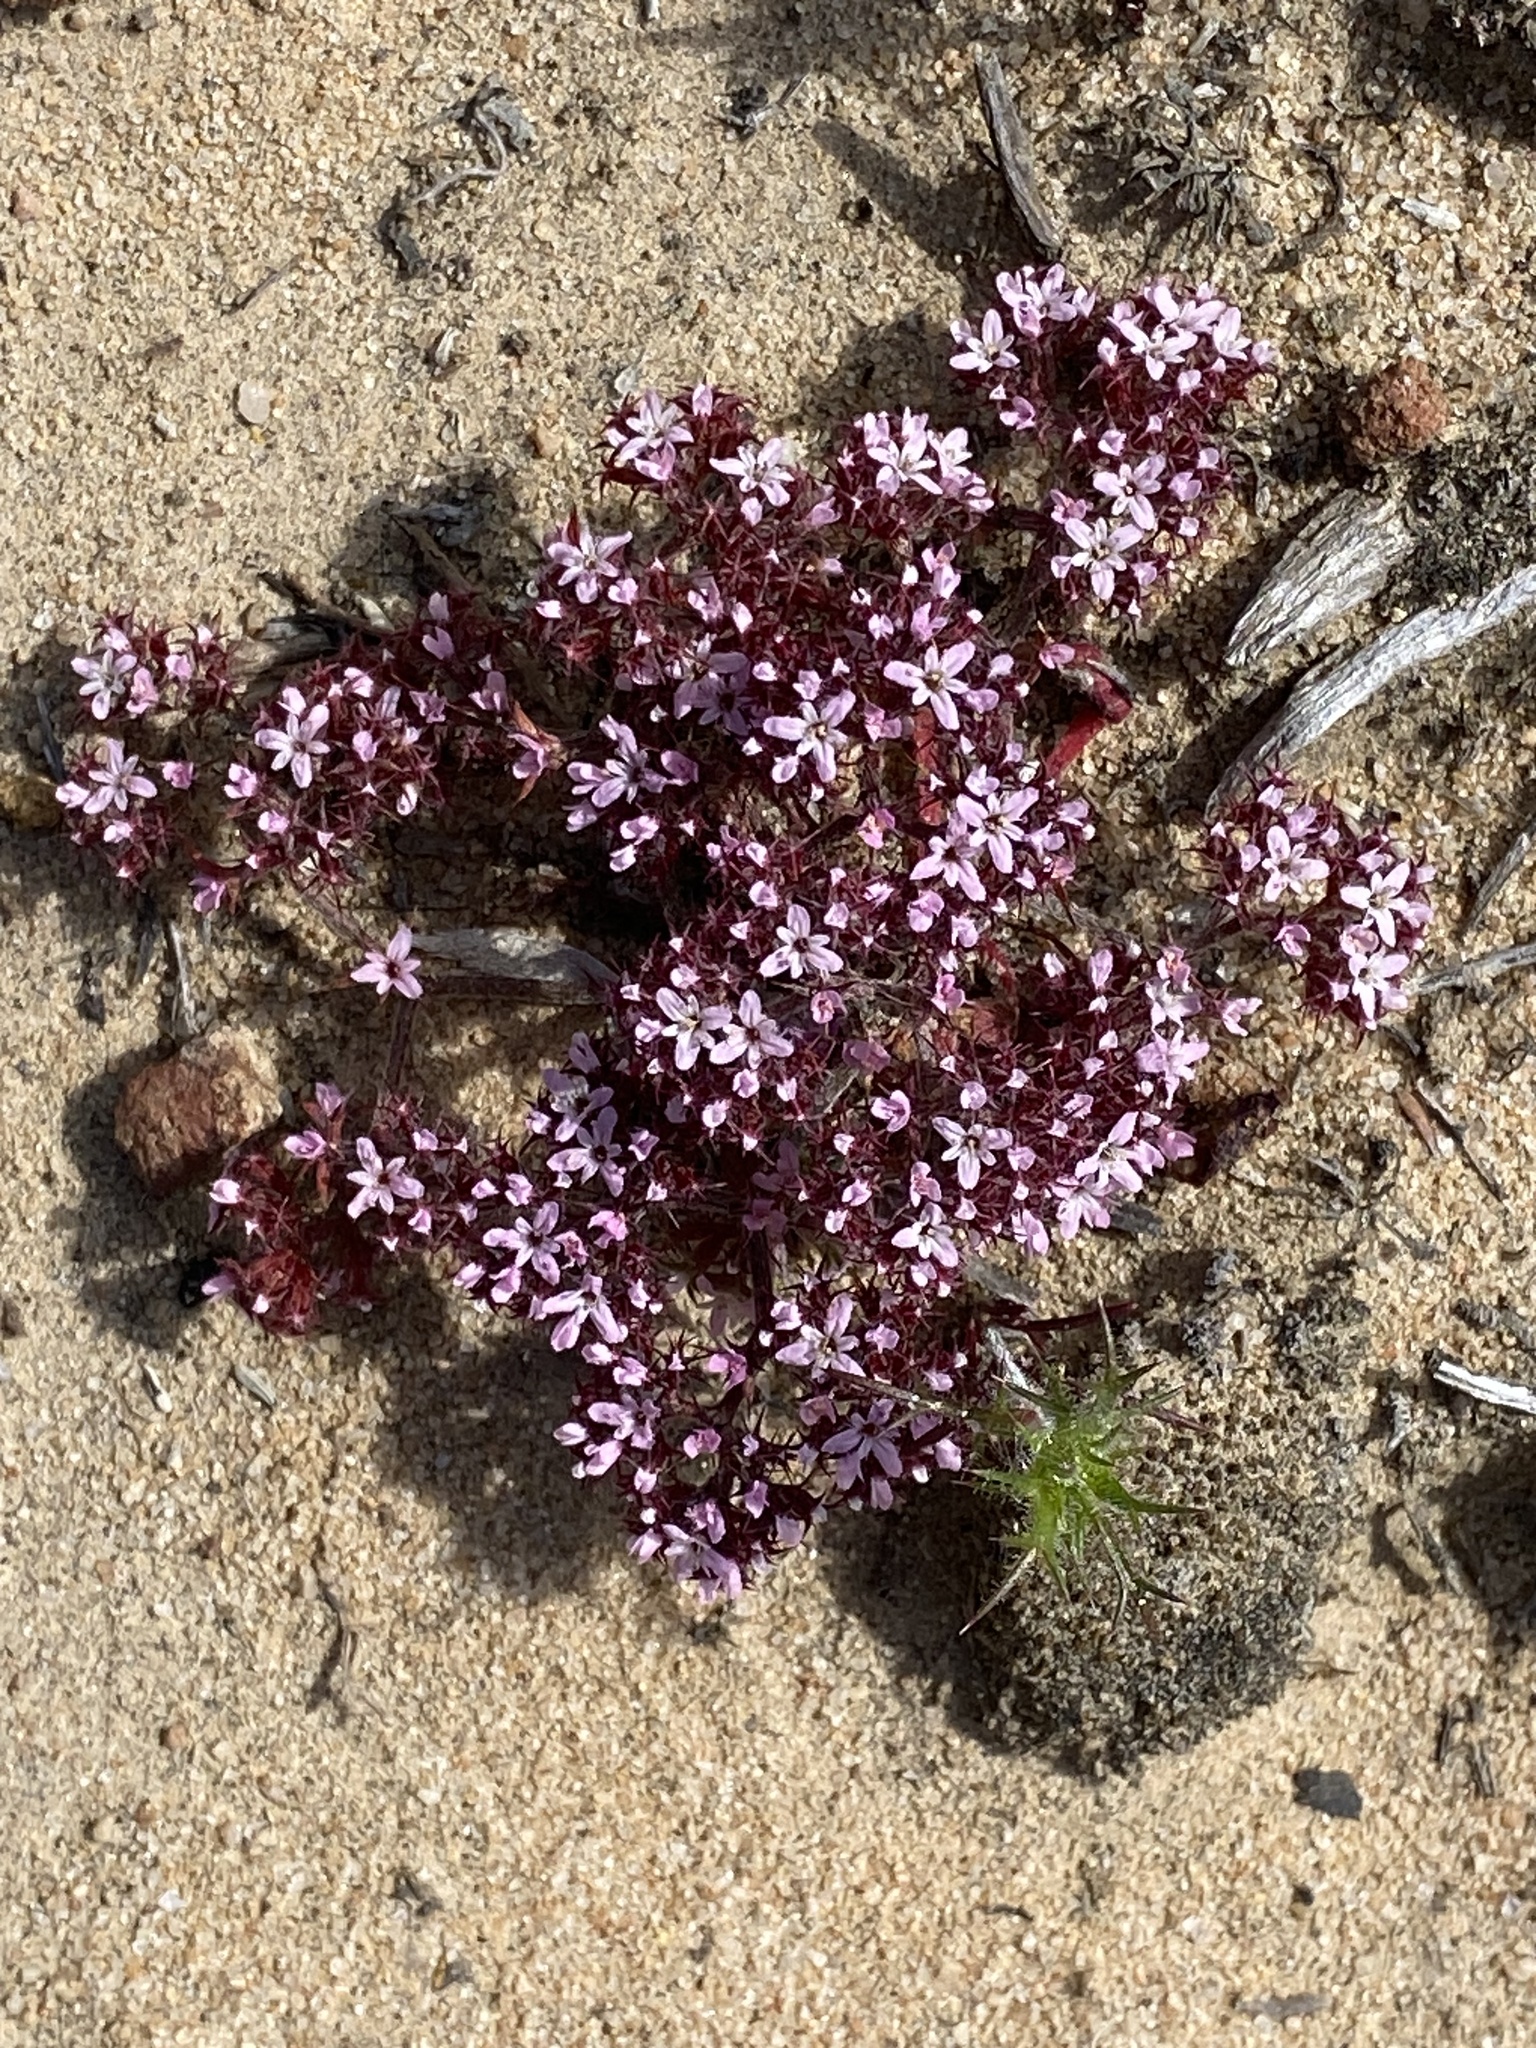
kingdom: Plantae
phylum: Tracheophyta
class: Magnoliopsida
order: Caryophyllales
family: Polygonaceae
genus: Chorizanthe
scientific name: Chorizanthe staticoides
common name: Turkish rugging
